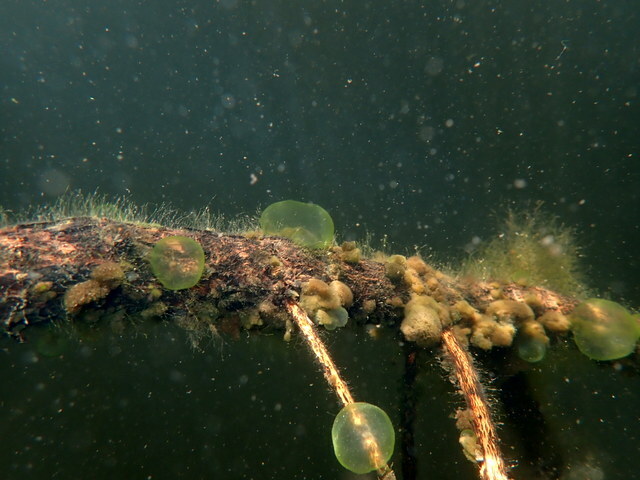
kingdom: Chromista
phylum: Ciliophora
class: Oligohymenophorea
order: Peritrichida
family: Ophrydiidae
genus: Ophrydium
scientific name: Ophrydium
